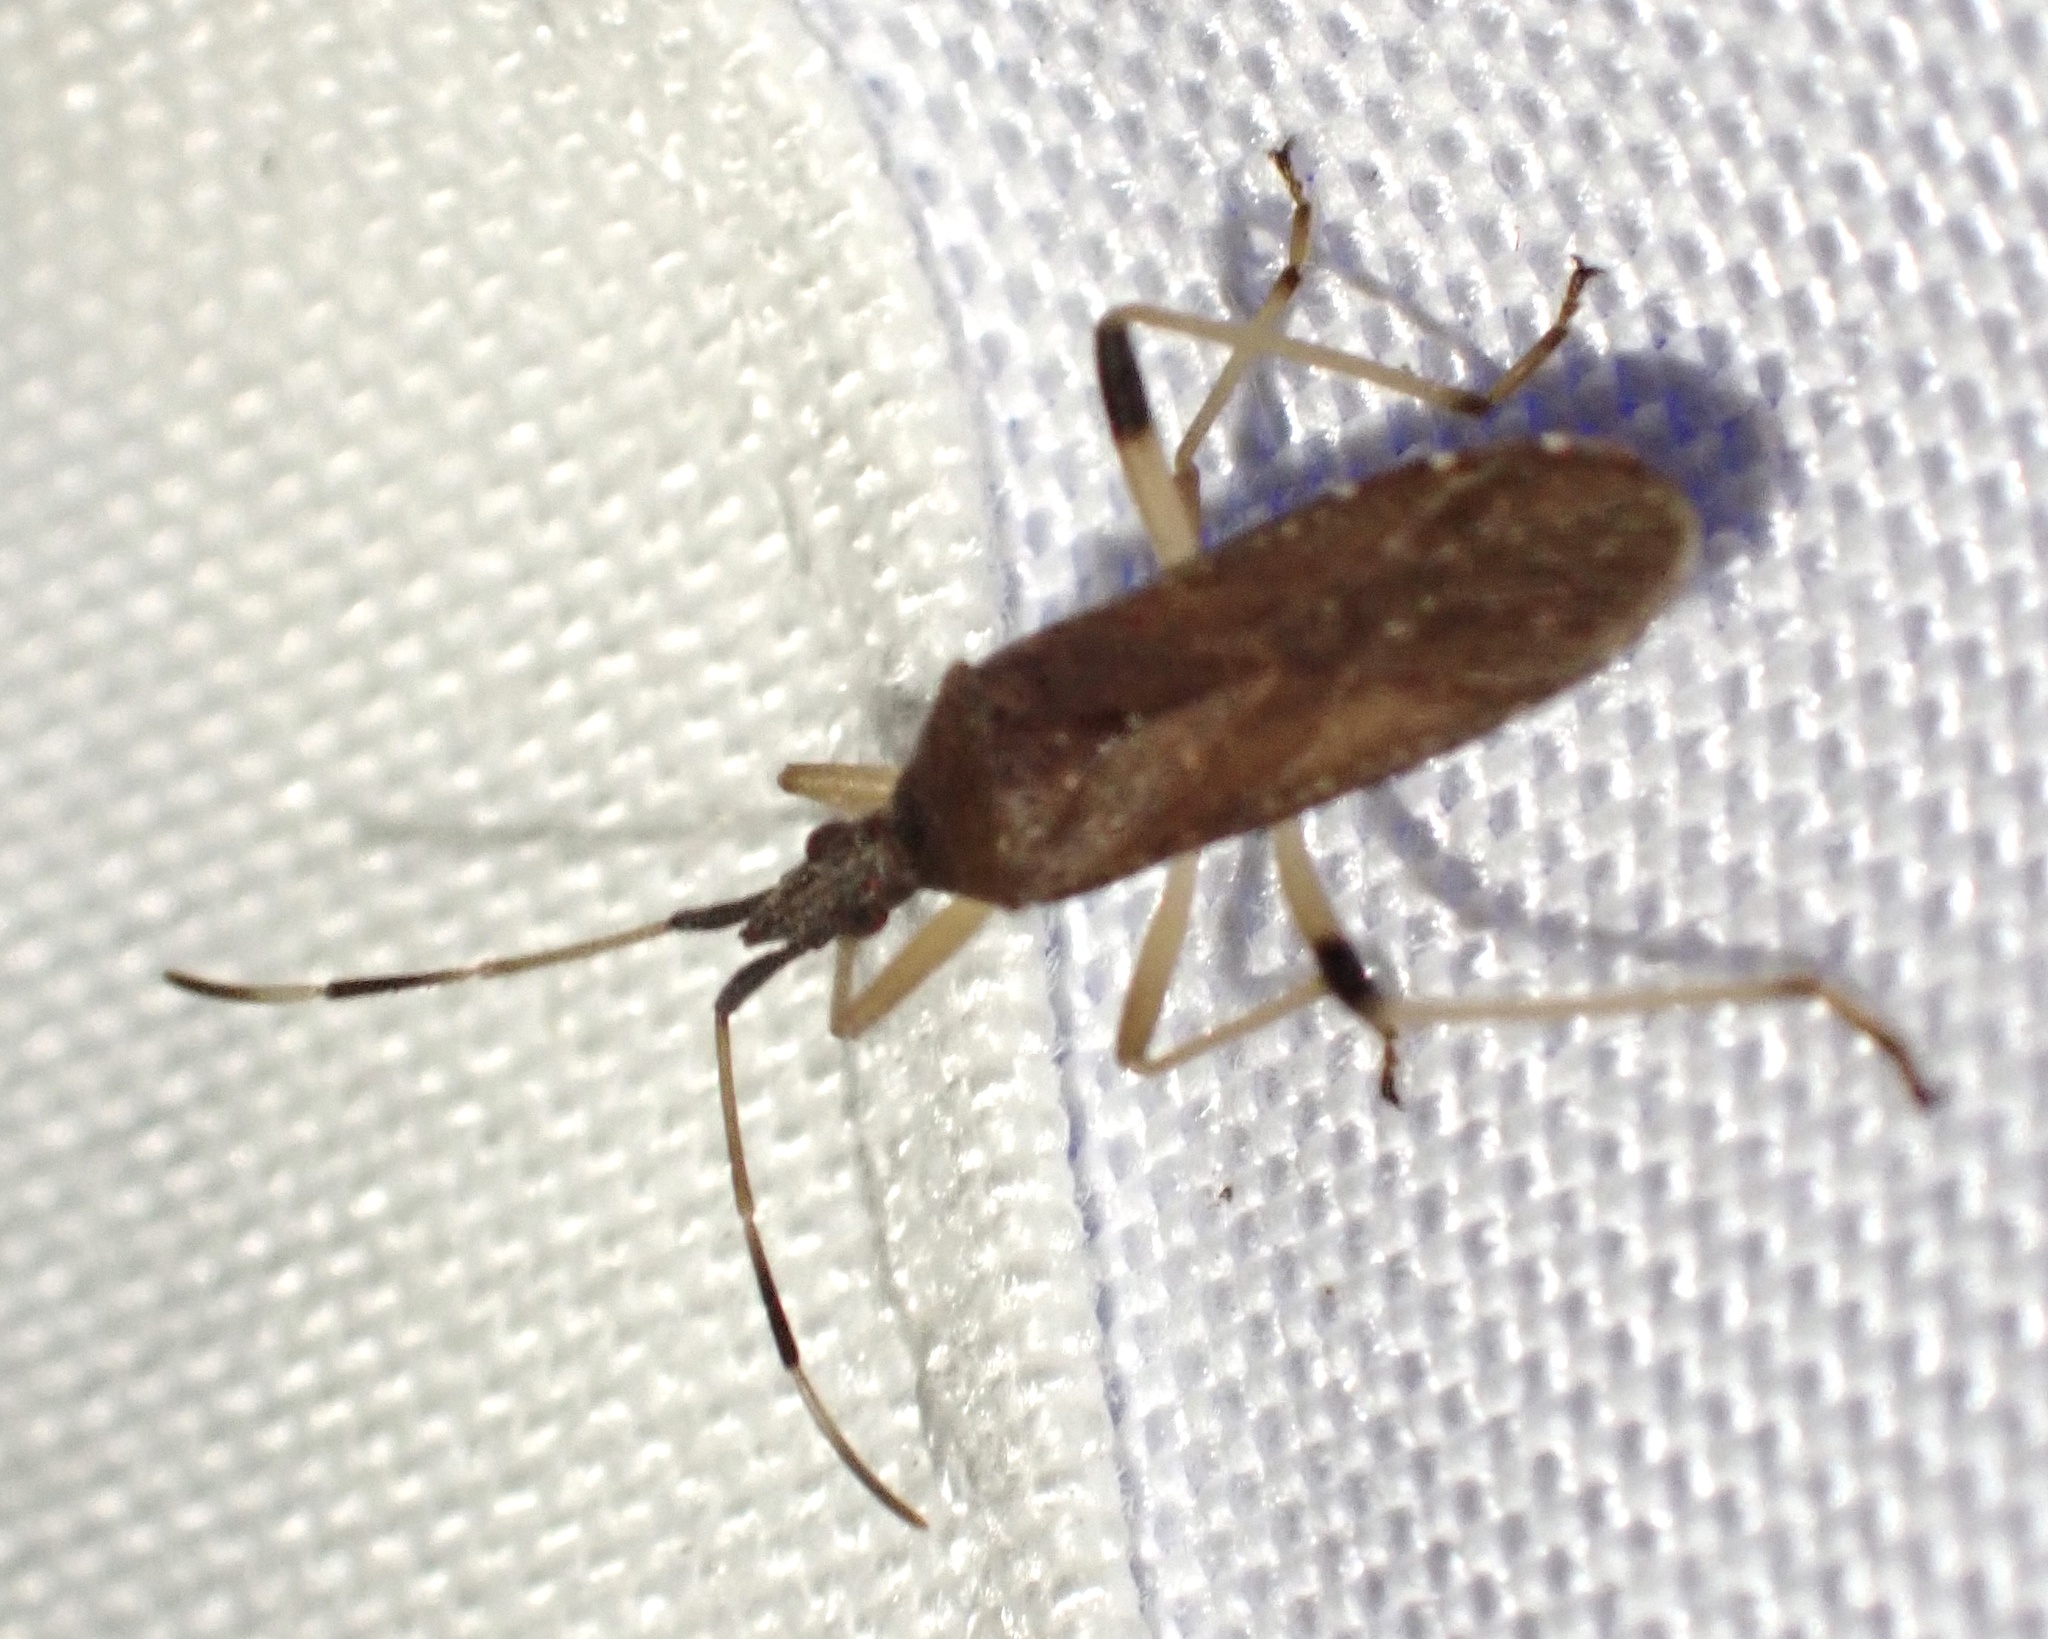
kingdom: Animalia
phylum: Arthropoda
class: Insecta
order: Hemiptera
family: Stenocephalidae
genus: Dicranocephalus
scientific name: Dicranocephalus caffer
